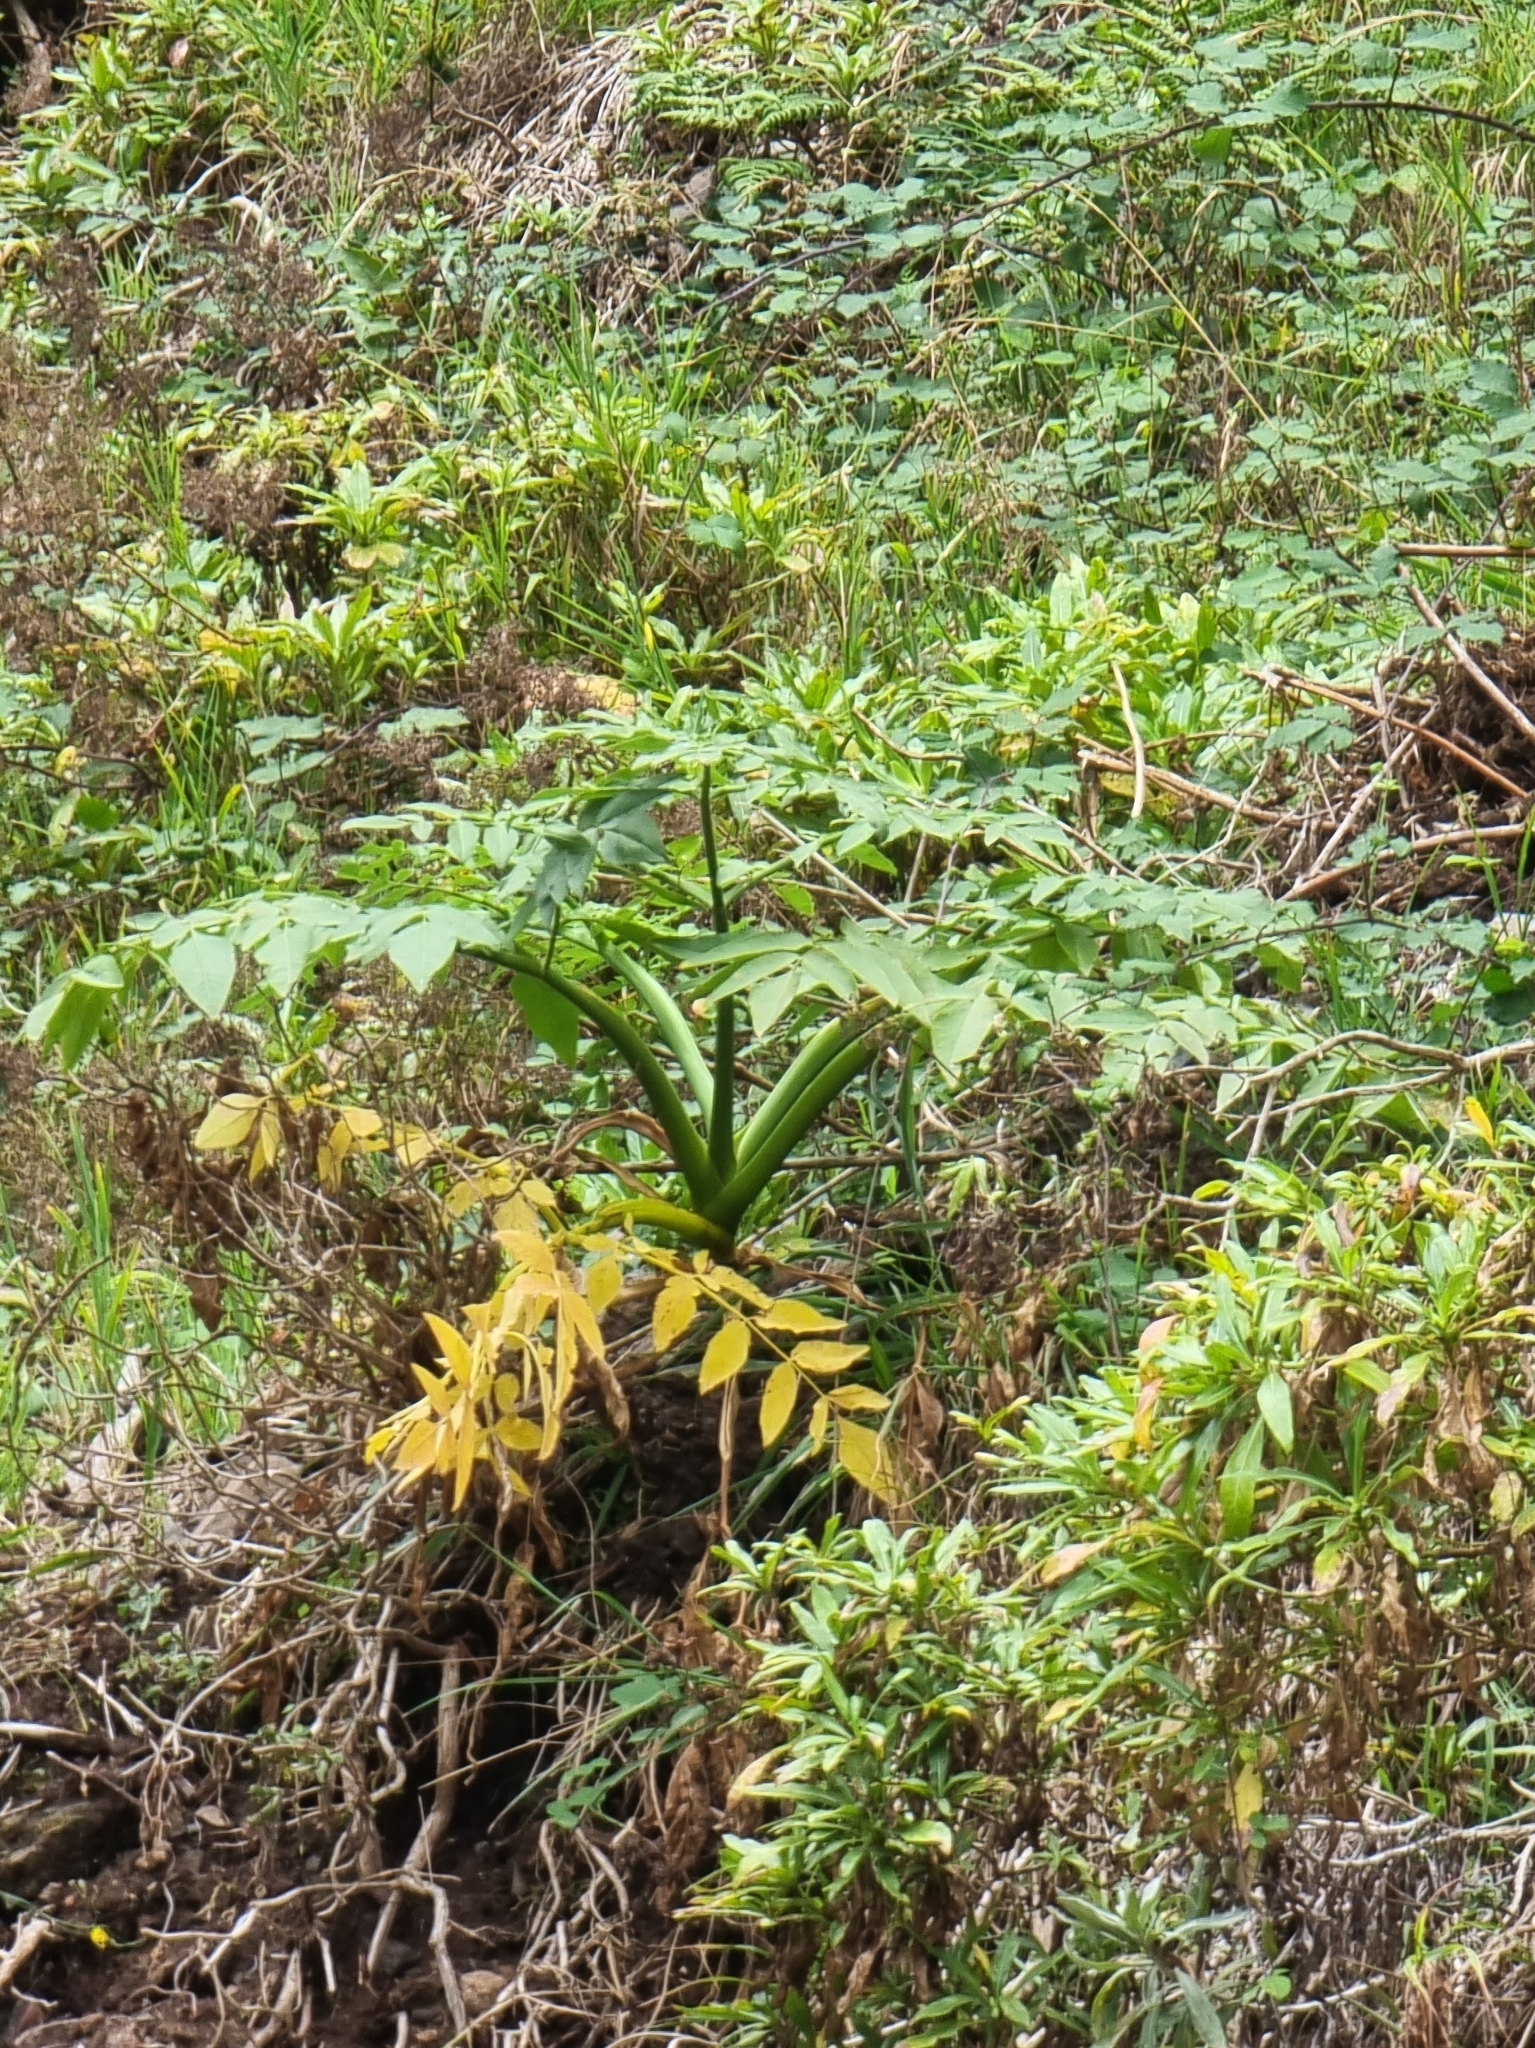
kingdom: Plantae
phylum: Tracheophyta
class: Magnoliopsida
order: Apiales
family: Apiaceae
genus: Daucus
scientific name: Daucus decipiens
